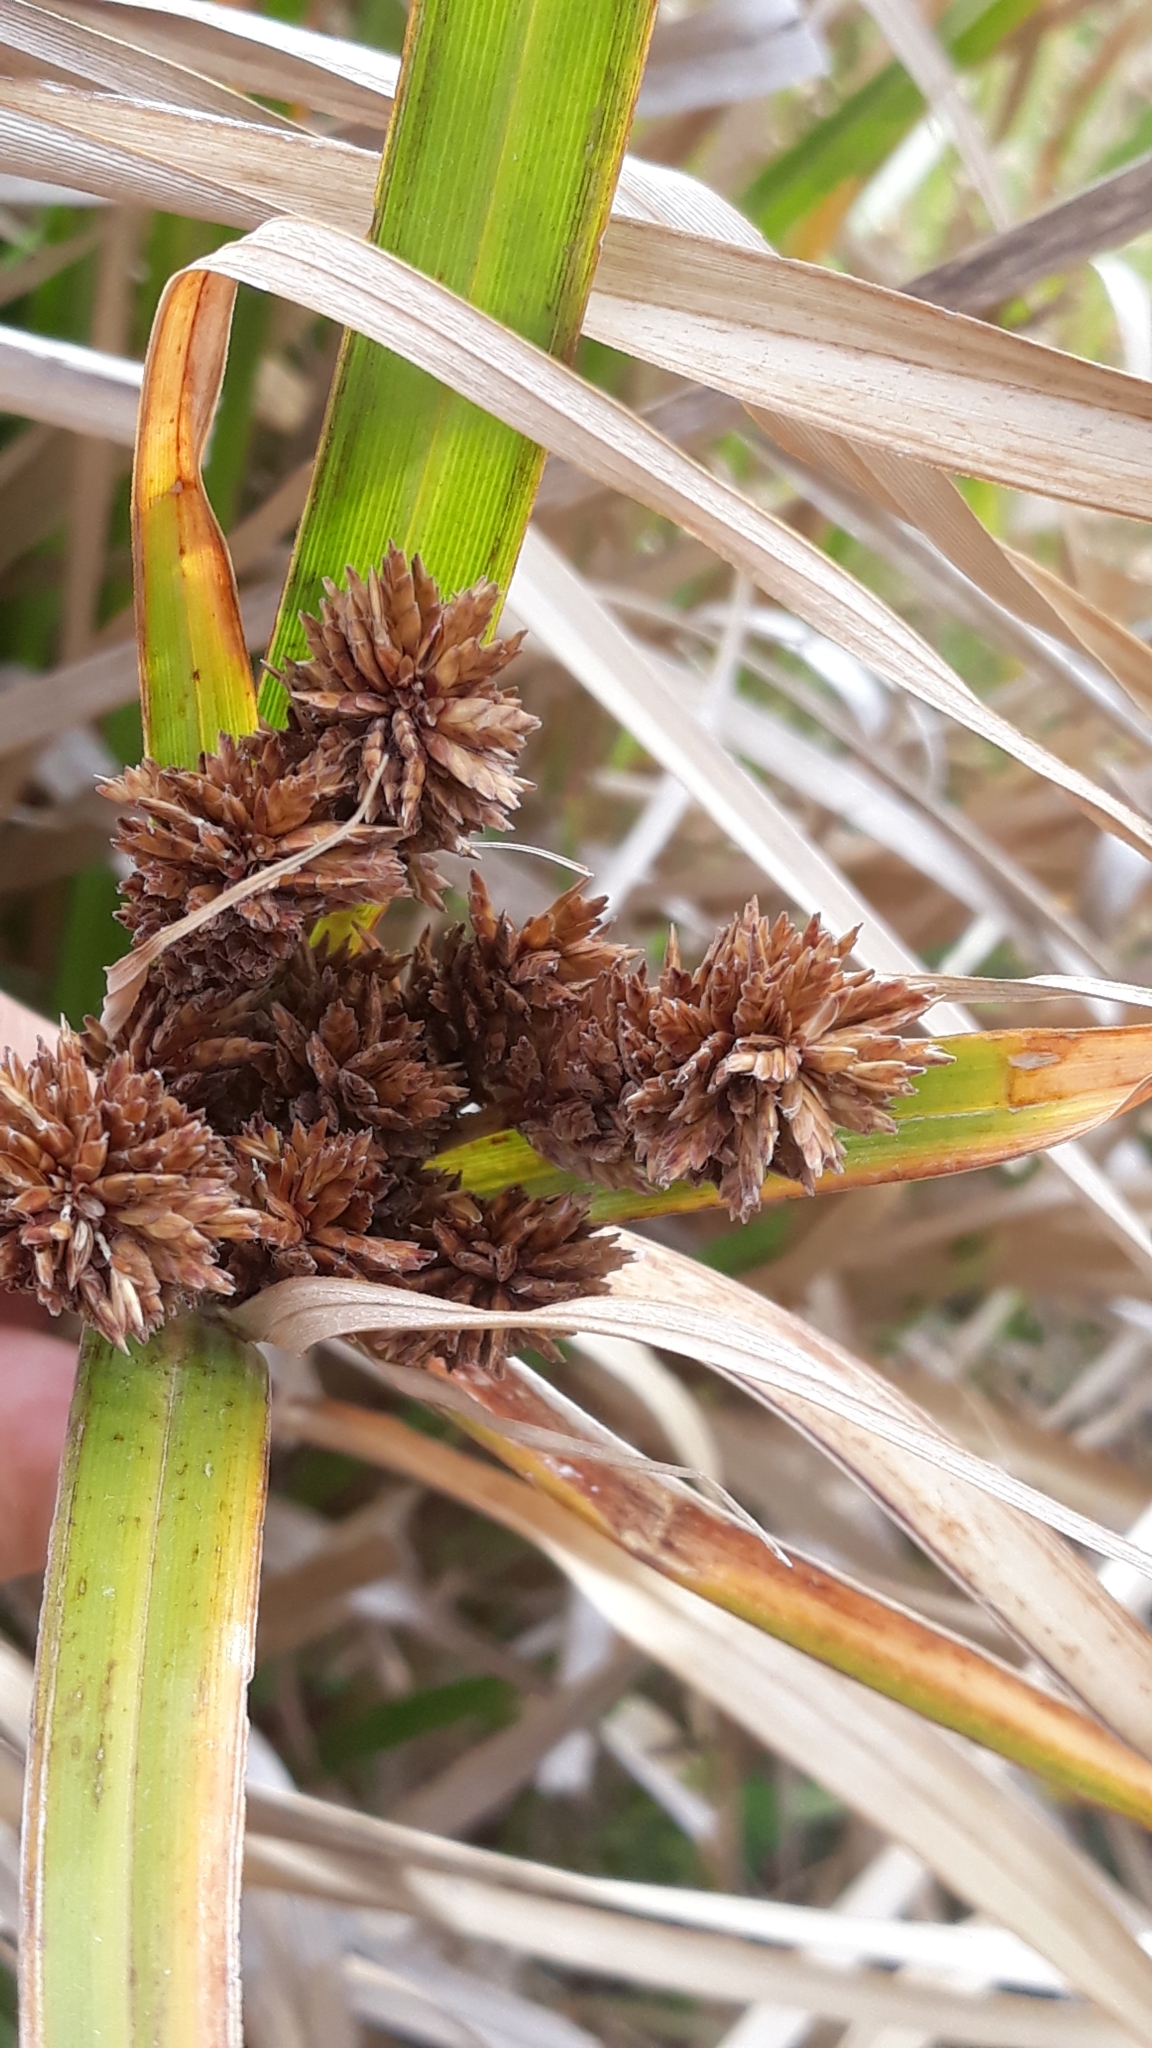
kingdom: Plantae
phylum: Tracheophyta
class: Liliopsida
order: Poales
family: Cyperaceae
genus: Cyperus
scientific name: Cyperus ustulatus
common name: Giant umbrella-sedge
